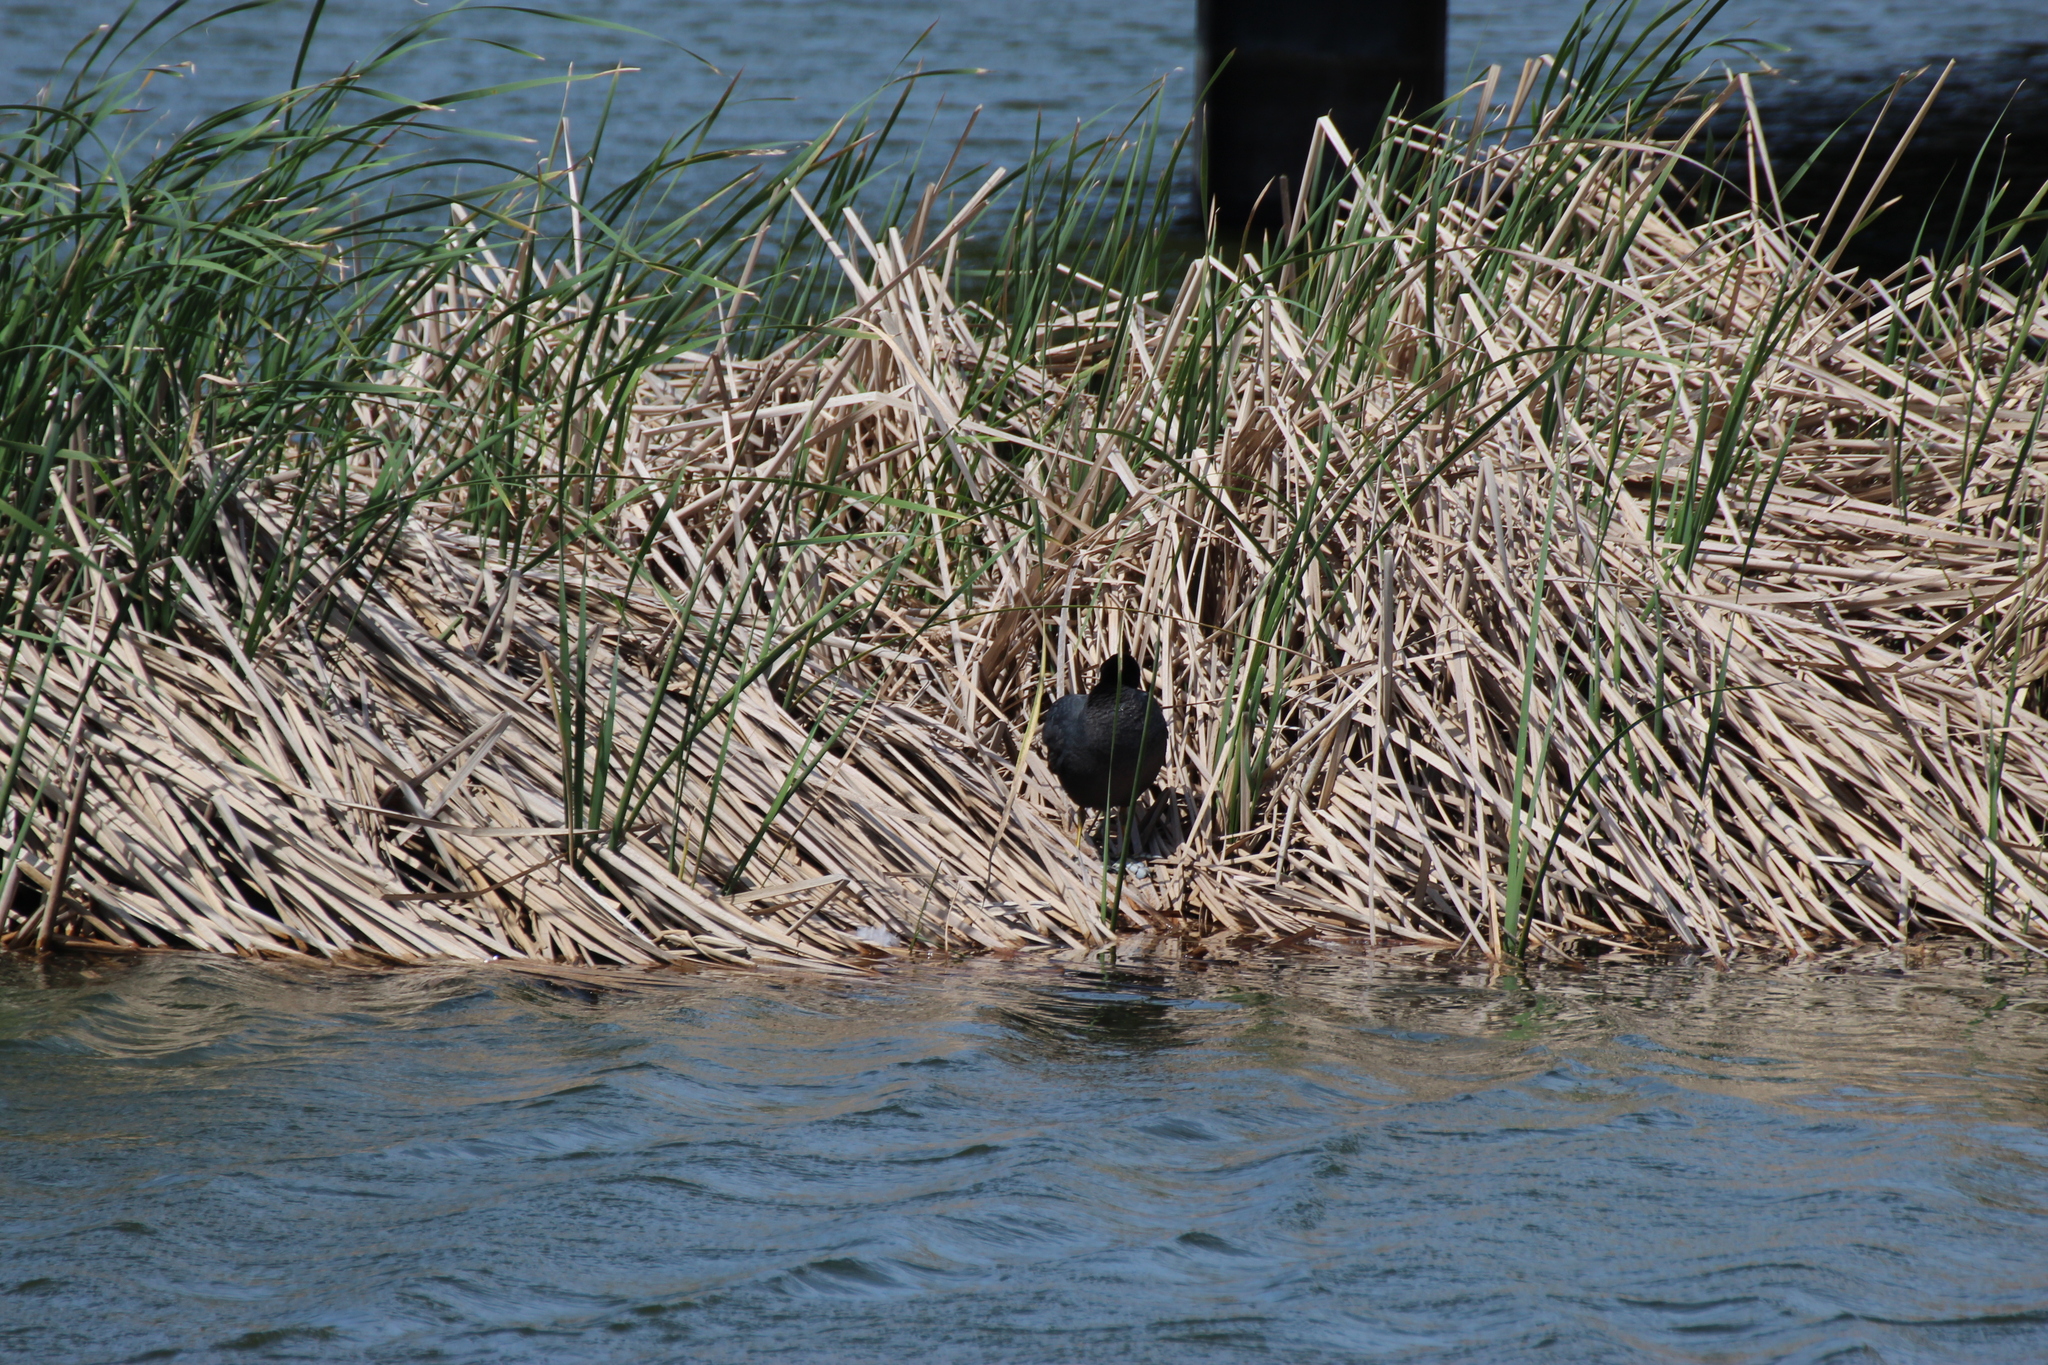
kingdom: Animalia
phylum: Chordata
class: Aves
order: Gruiformes
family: Rallidae
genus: Fulica
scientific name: Fulica atra
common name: Eurasian coot
